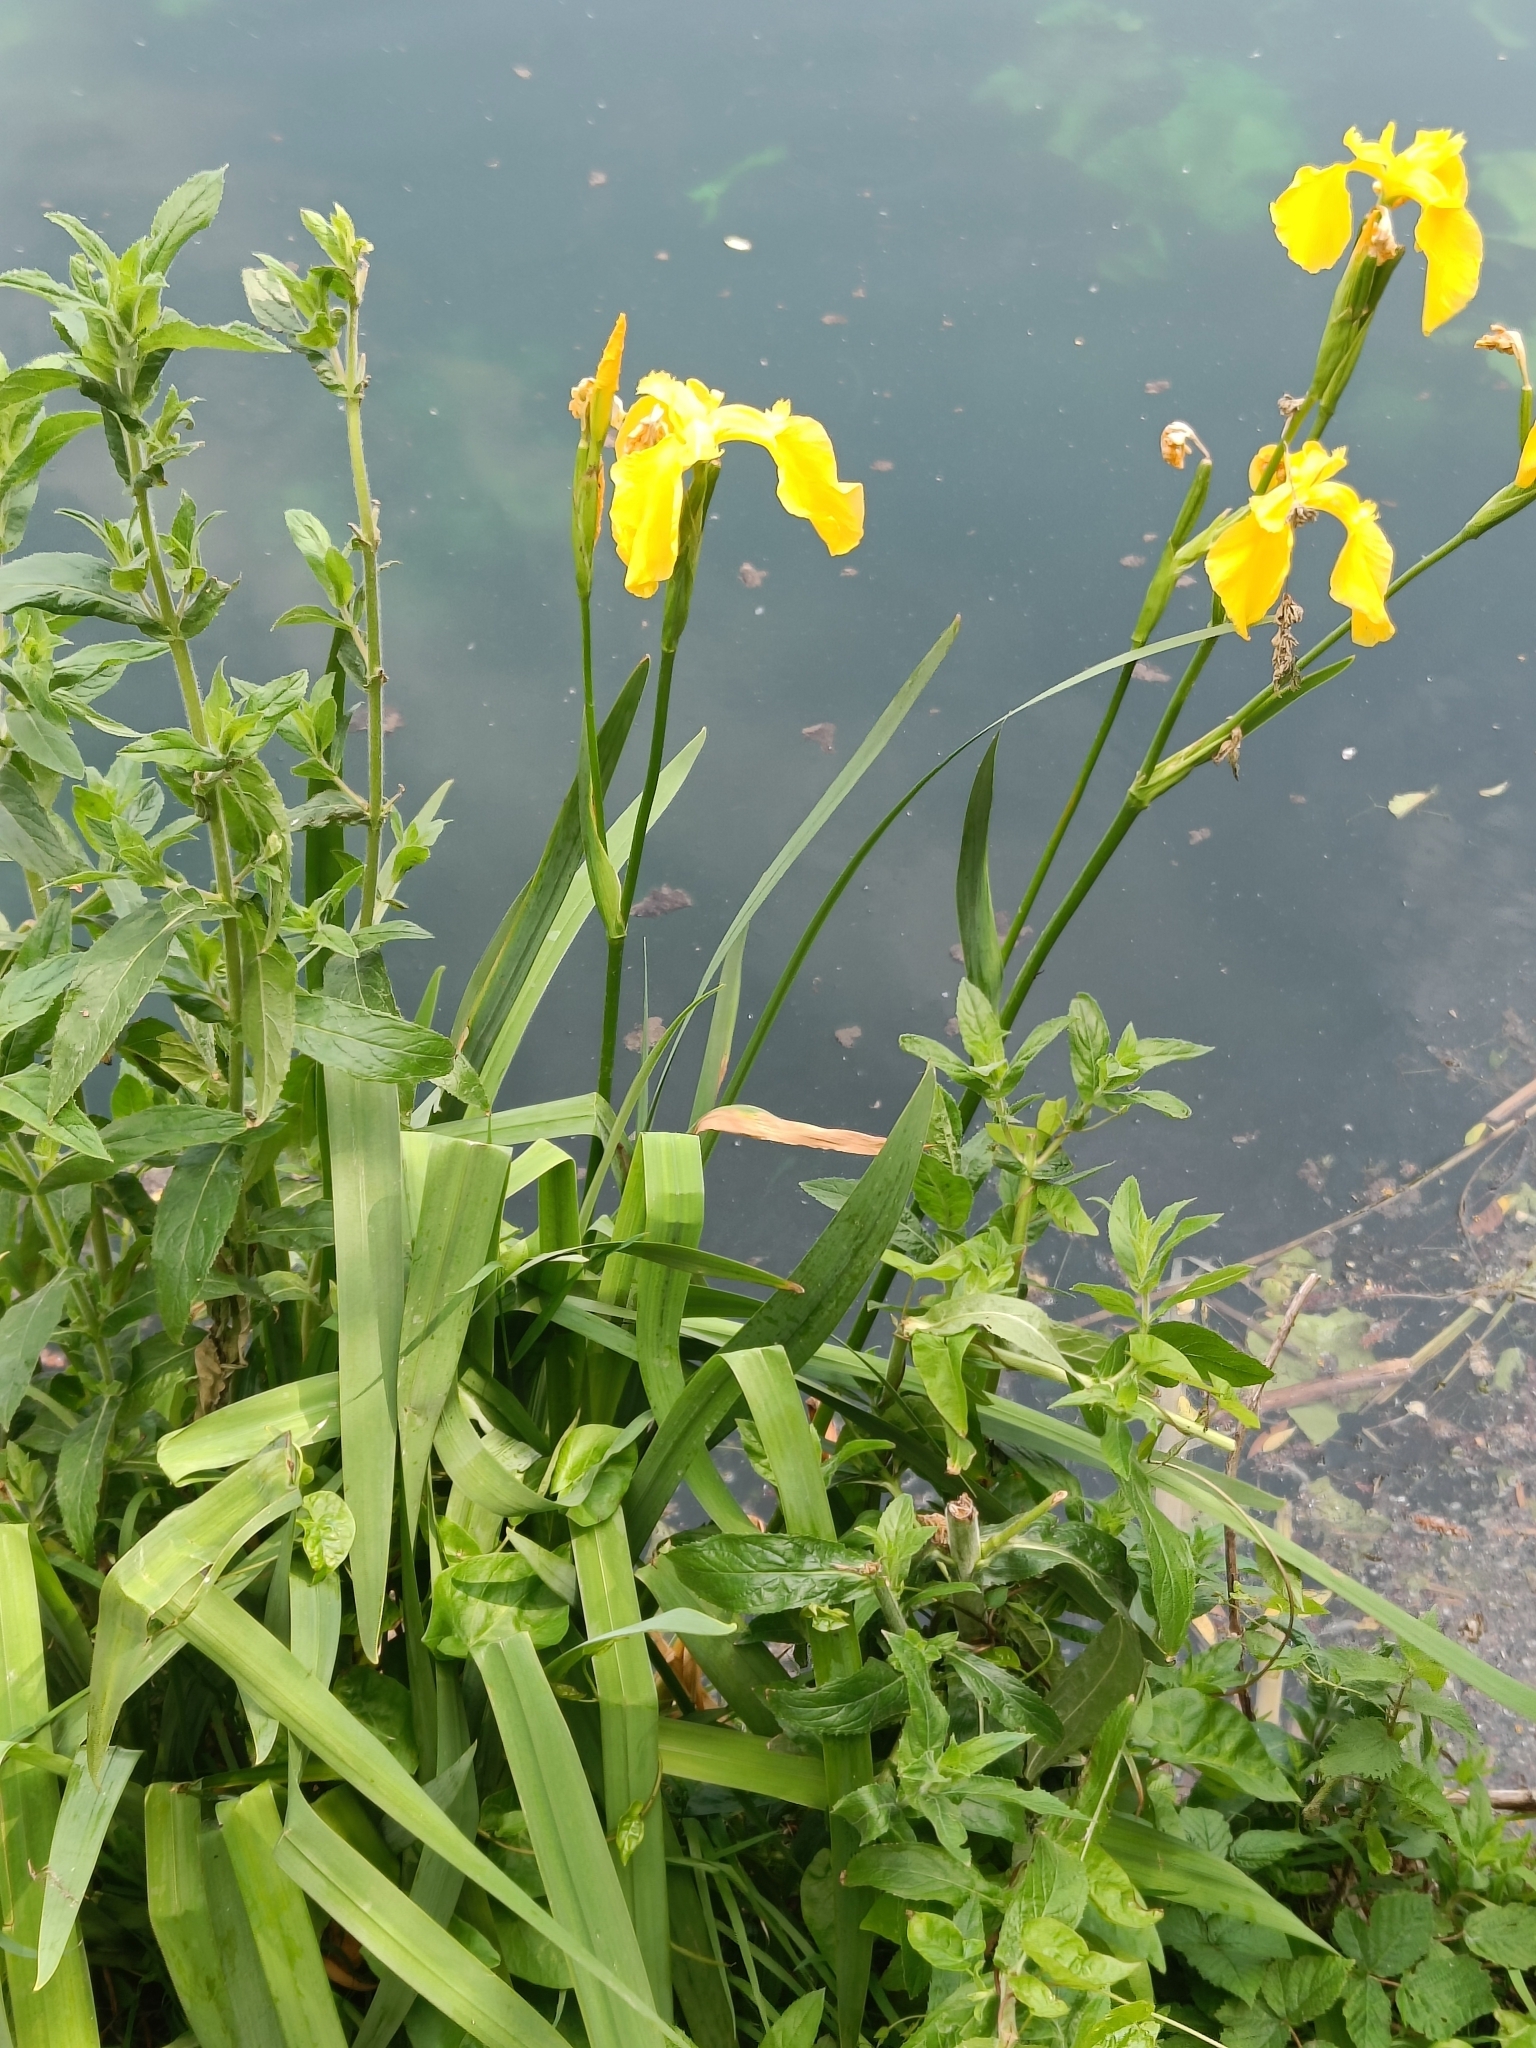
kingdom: Plantae
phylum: Tracheophyta
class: Liliopsida
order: Asparagales
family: Iridaceae
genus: Iris
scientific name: Iris pseudacorus
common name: Yellow flag
